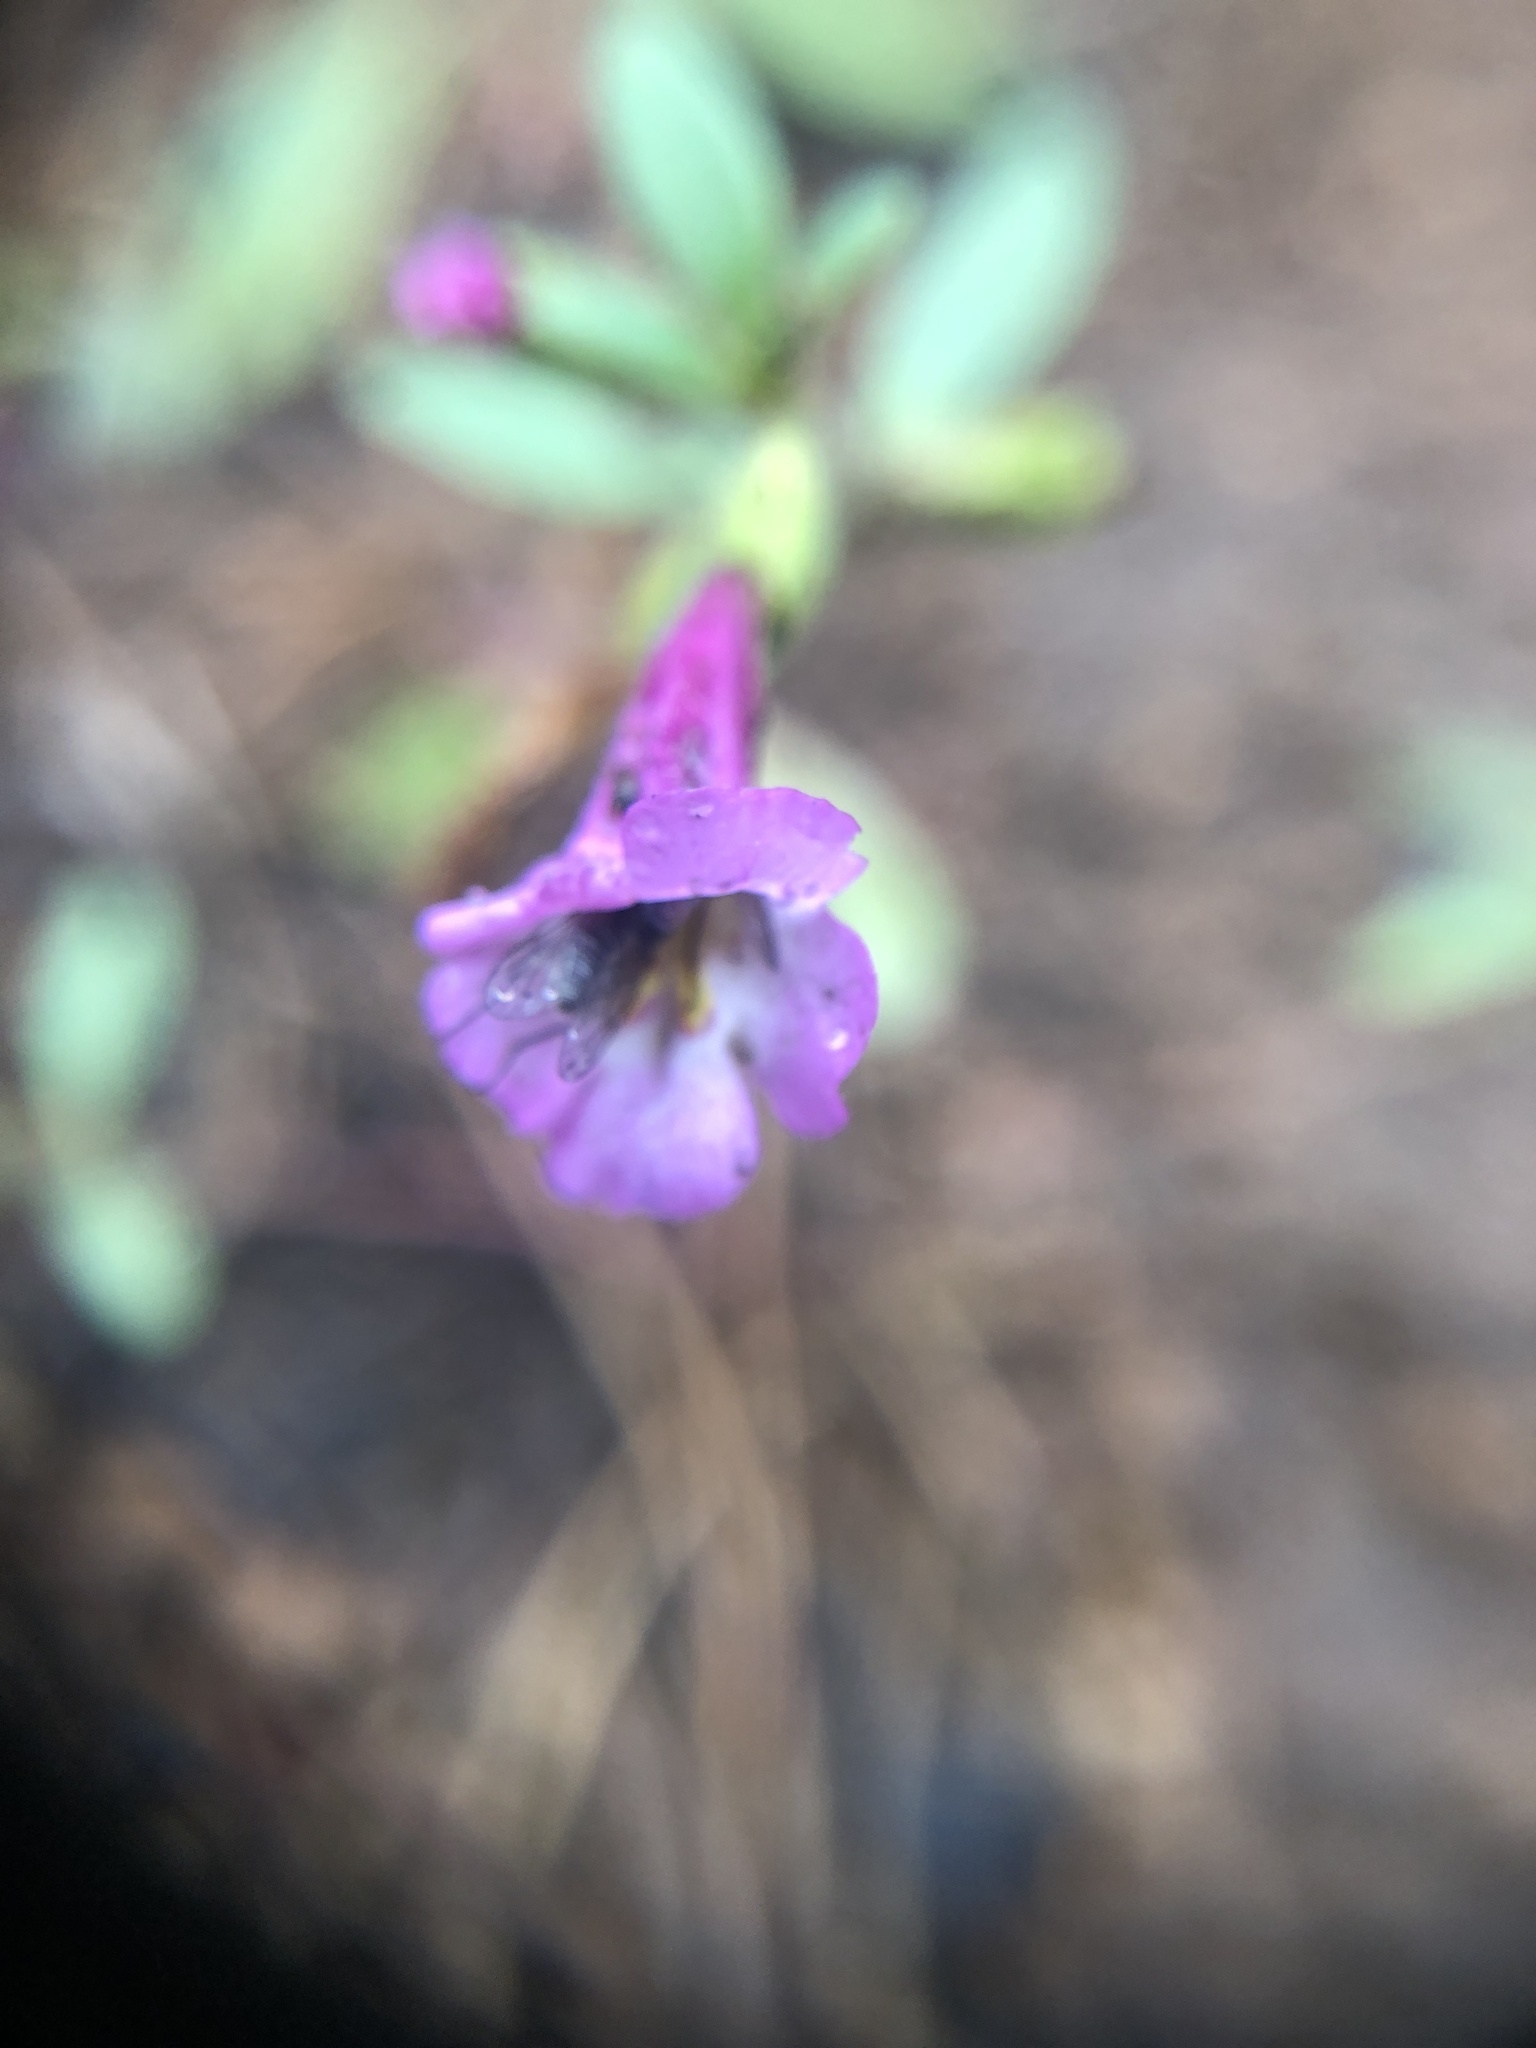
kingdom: Plantae
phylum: Tracheophyta
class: Magnoliopsida
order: Lamiales
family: Phrymaceae
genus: Diplacus
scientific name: Diplacus torreyi
